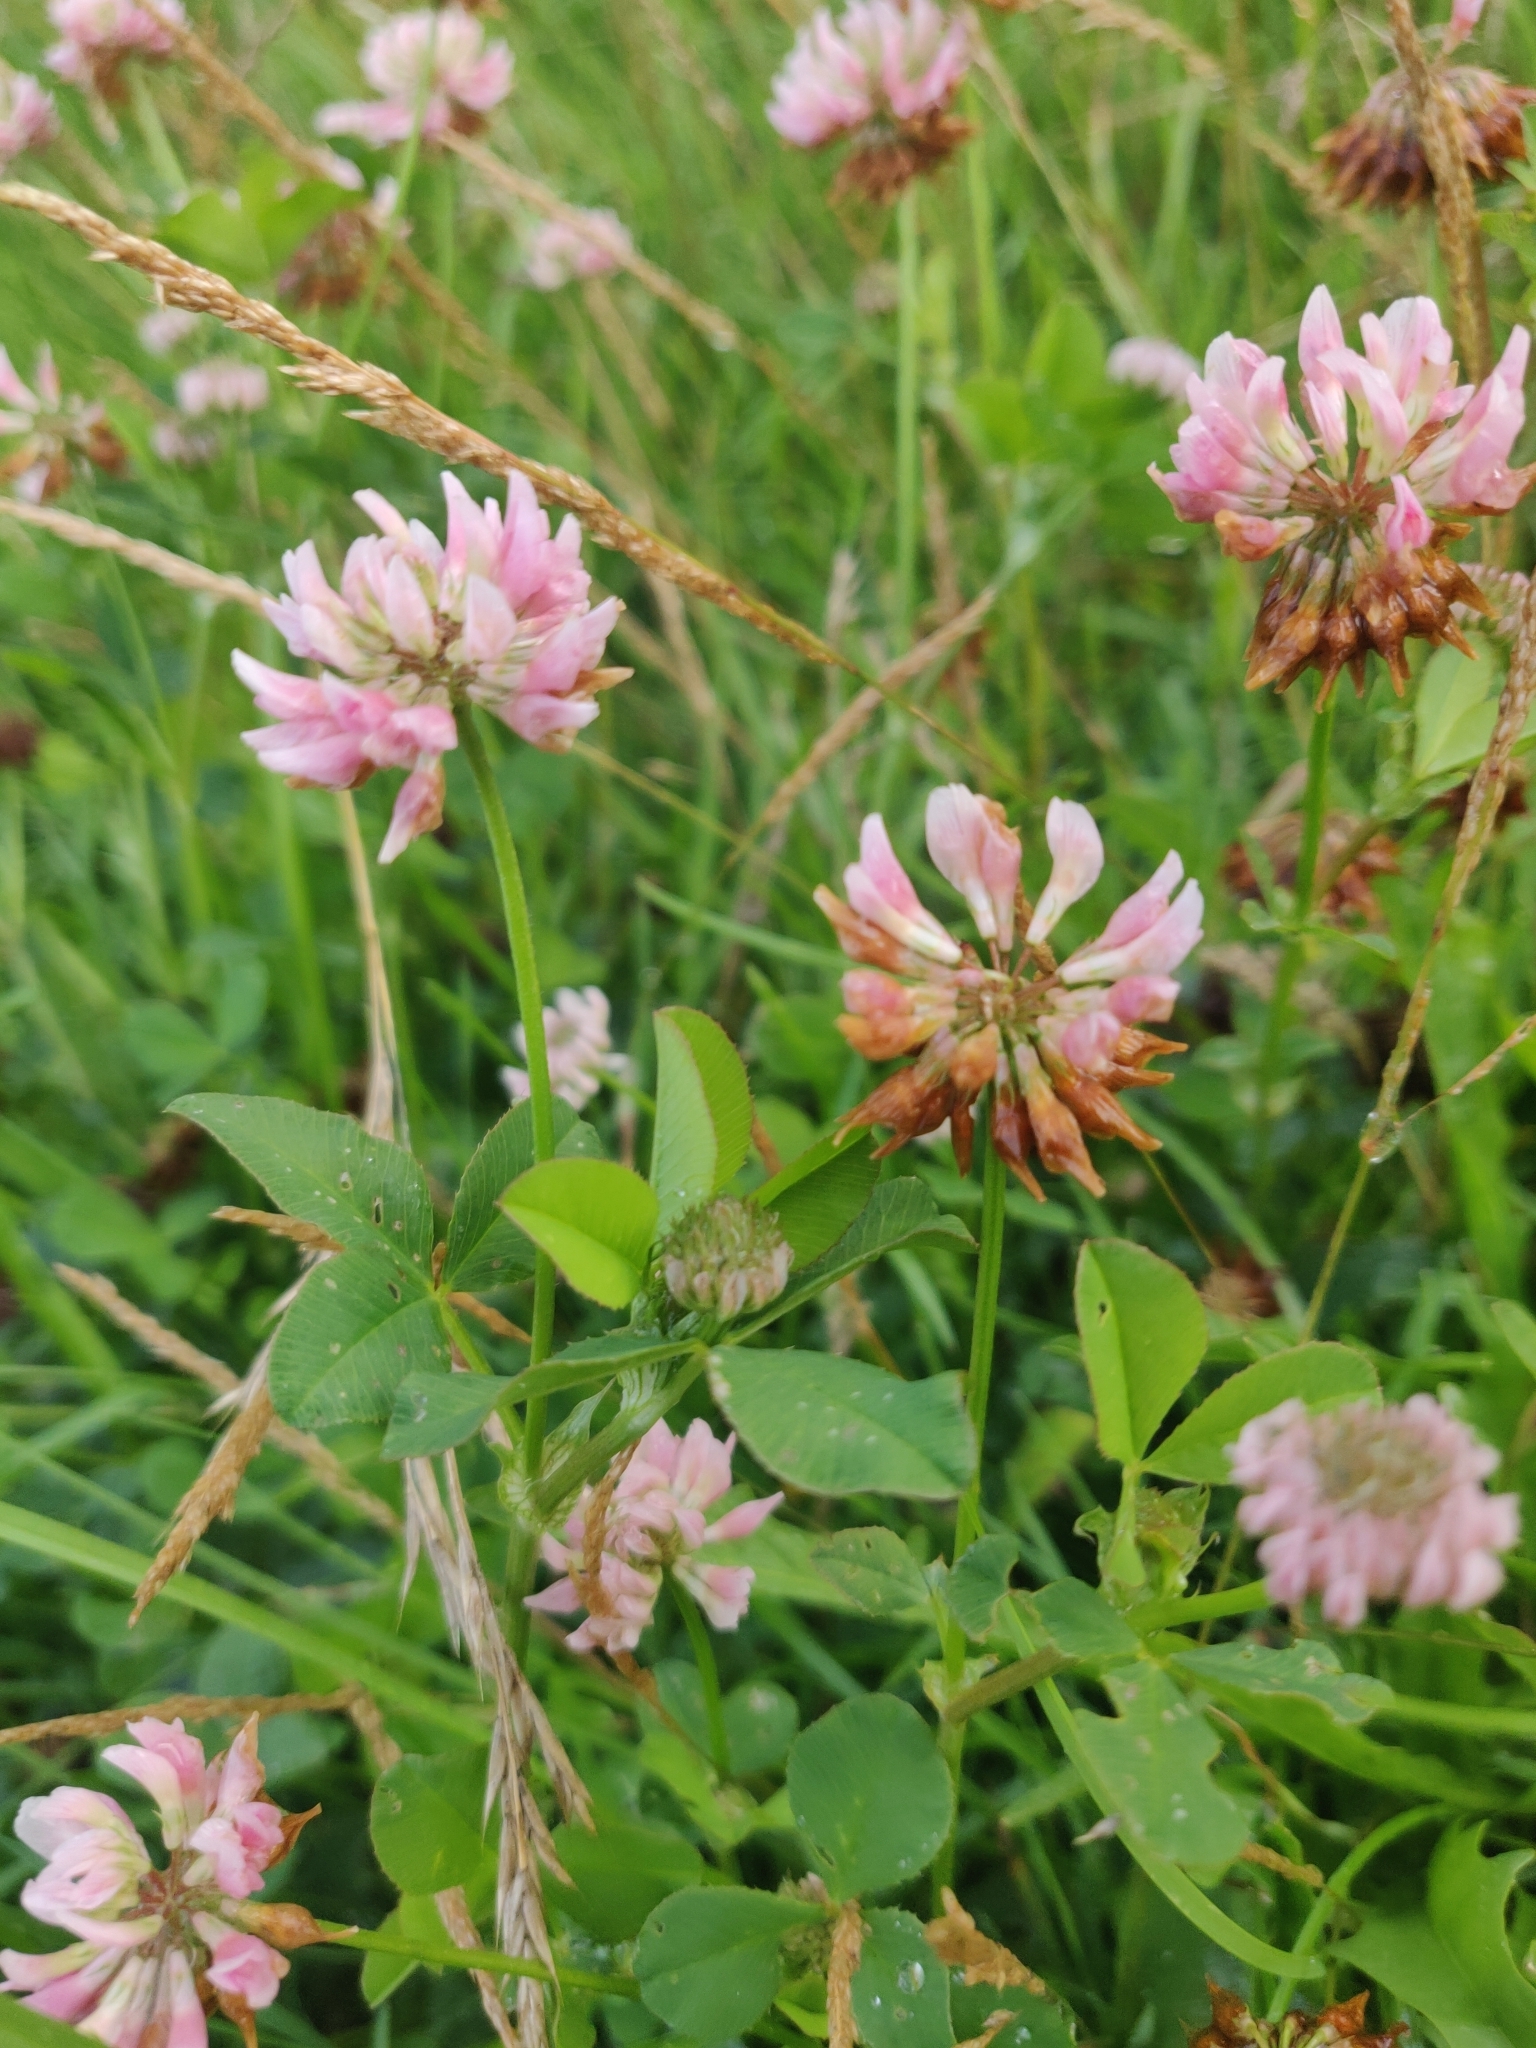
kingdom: Plantae
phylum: Tracheophyta
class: Magnoliopsida
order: Fabales
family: Fabaceae
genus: Trifolium
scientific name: Trifolium hybridum
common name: Alsike clover
